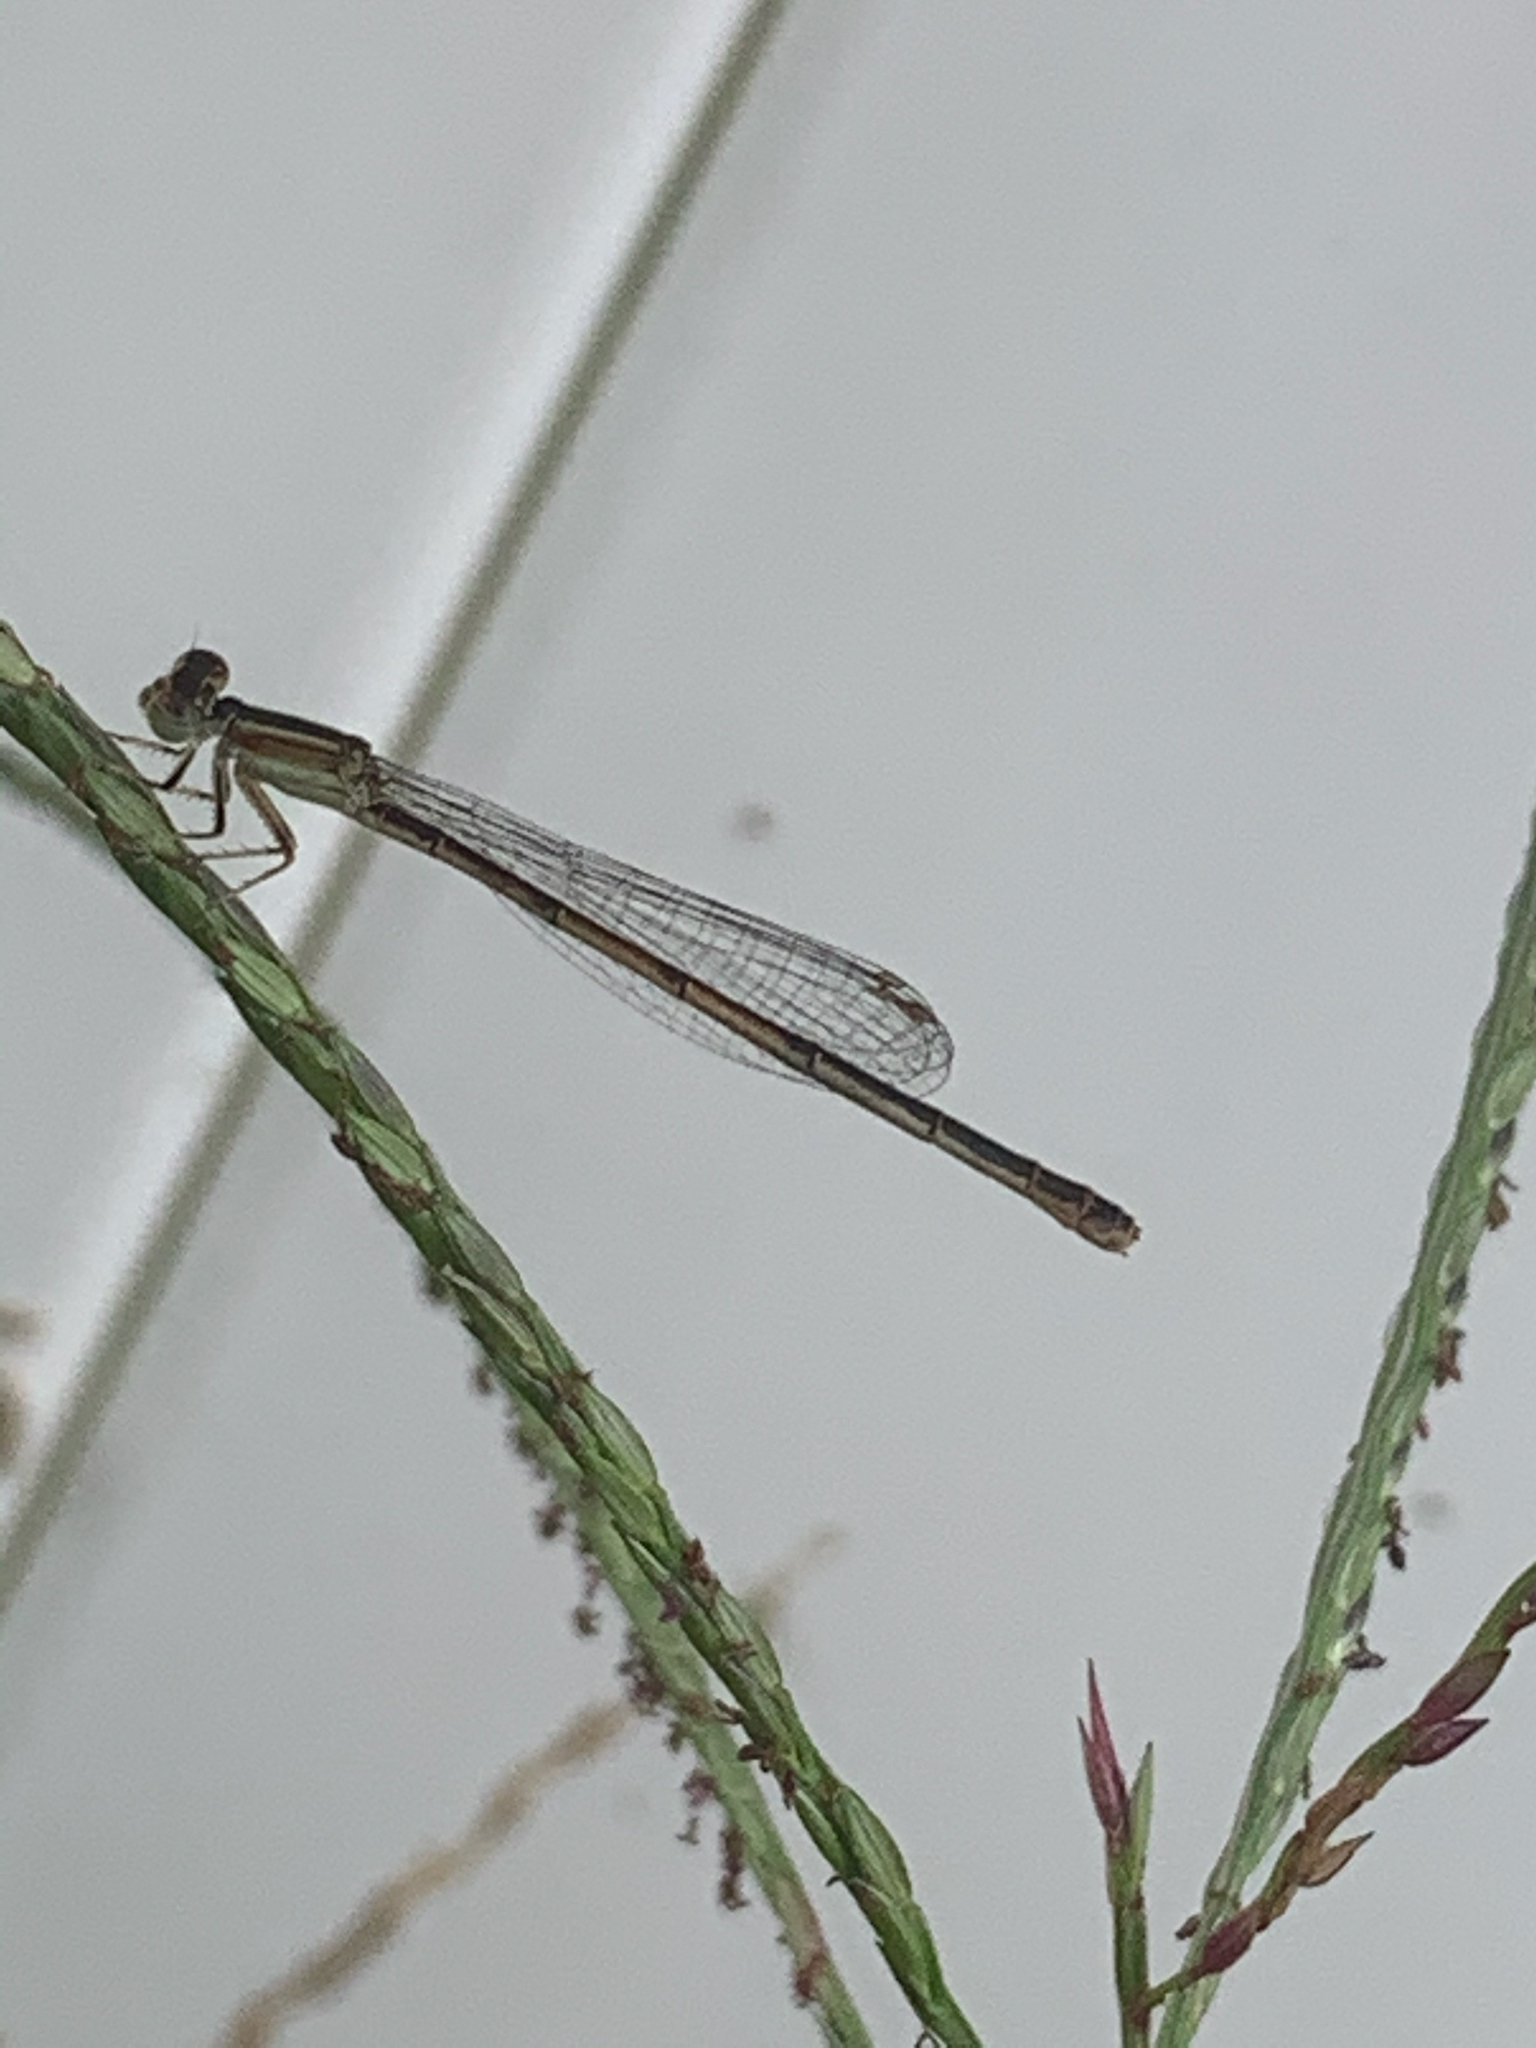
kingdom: Animalia
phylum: Arthropoda
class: Insecta
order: Odonata
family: Coenagrionidae
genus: Ischnura
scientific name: Ischnura hastata
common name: Citrine forktail
